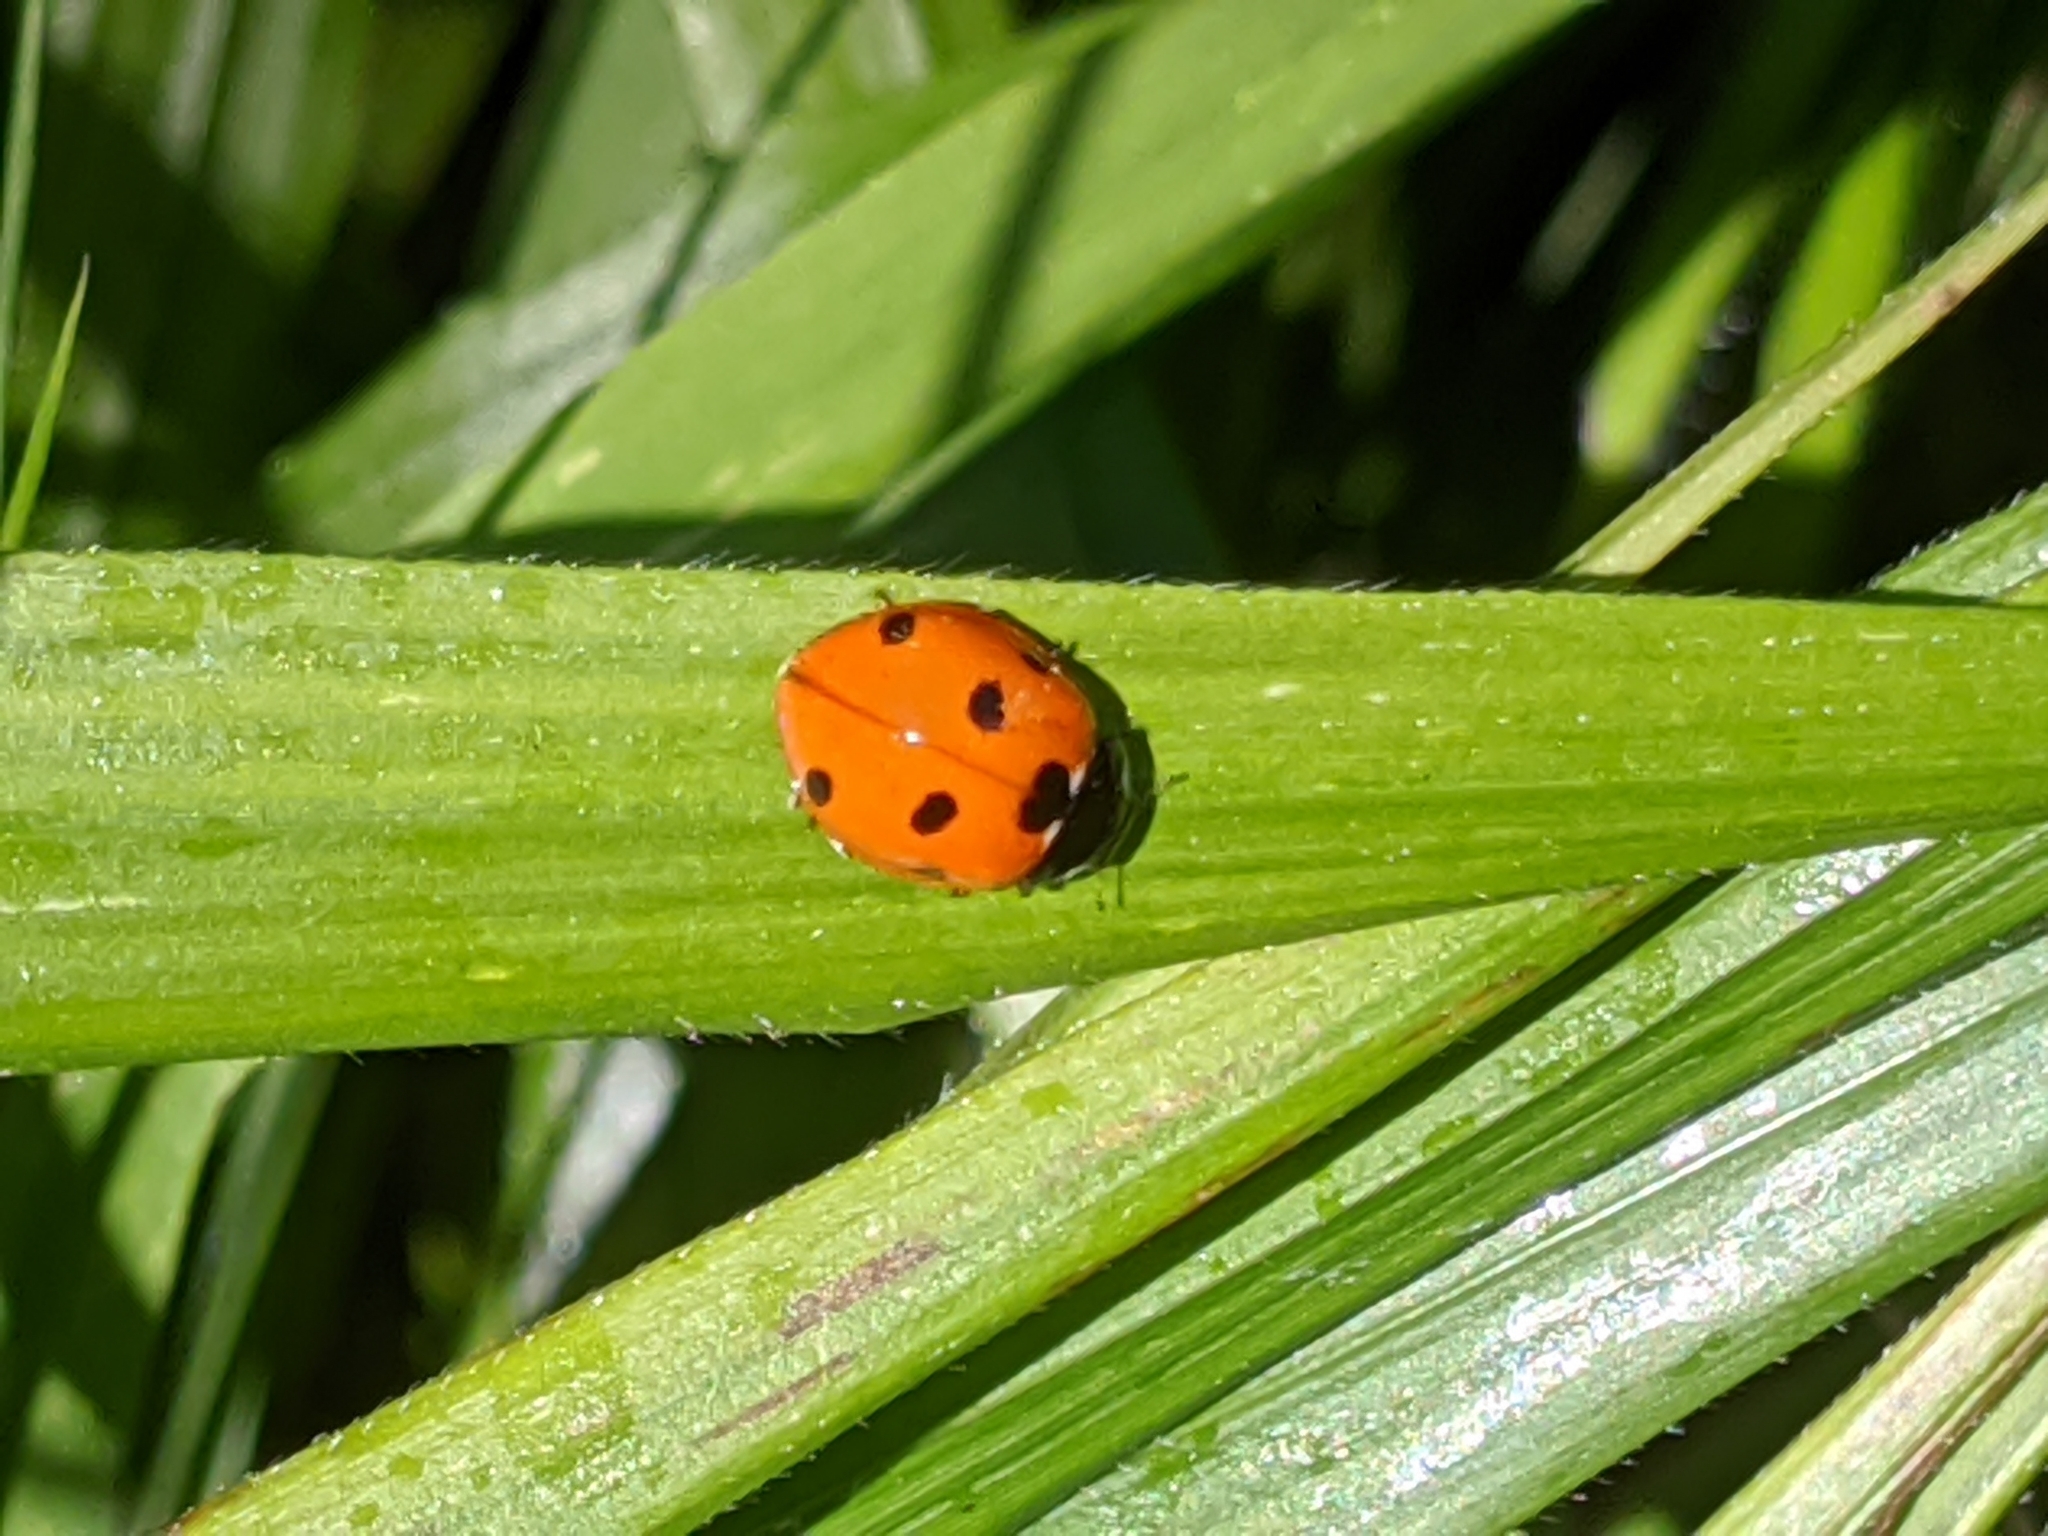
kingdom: Animalia
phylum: Arthropoda
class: Insecta
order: Coleoptera
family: Coccinellidae
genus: Coccinella
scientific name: Coccinella septempunctata
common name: Sevenspotted lady beetle
